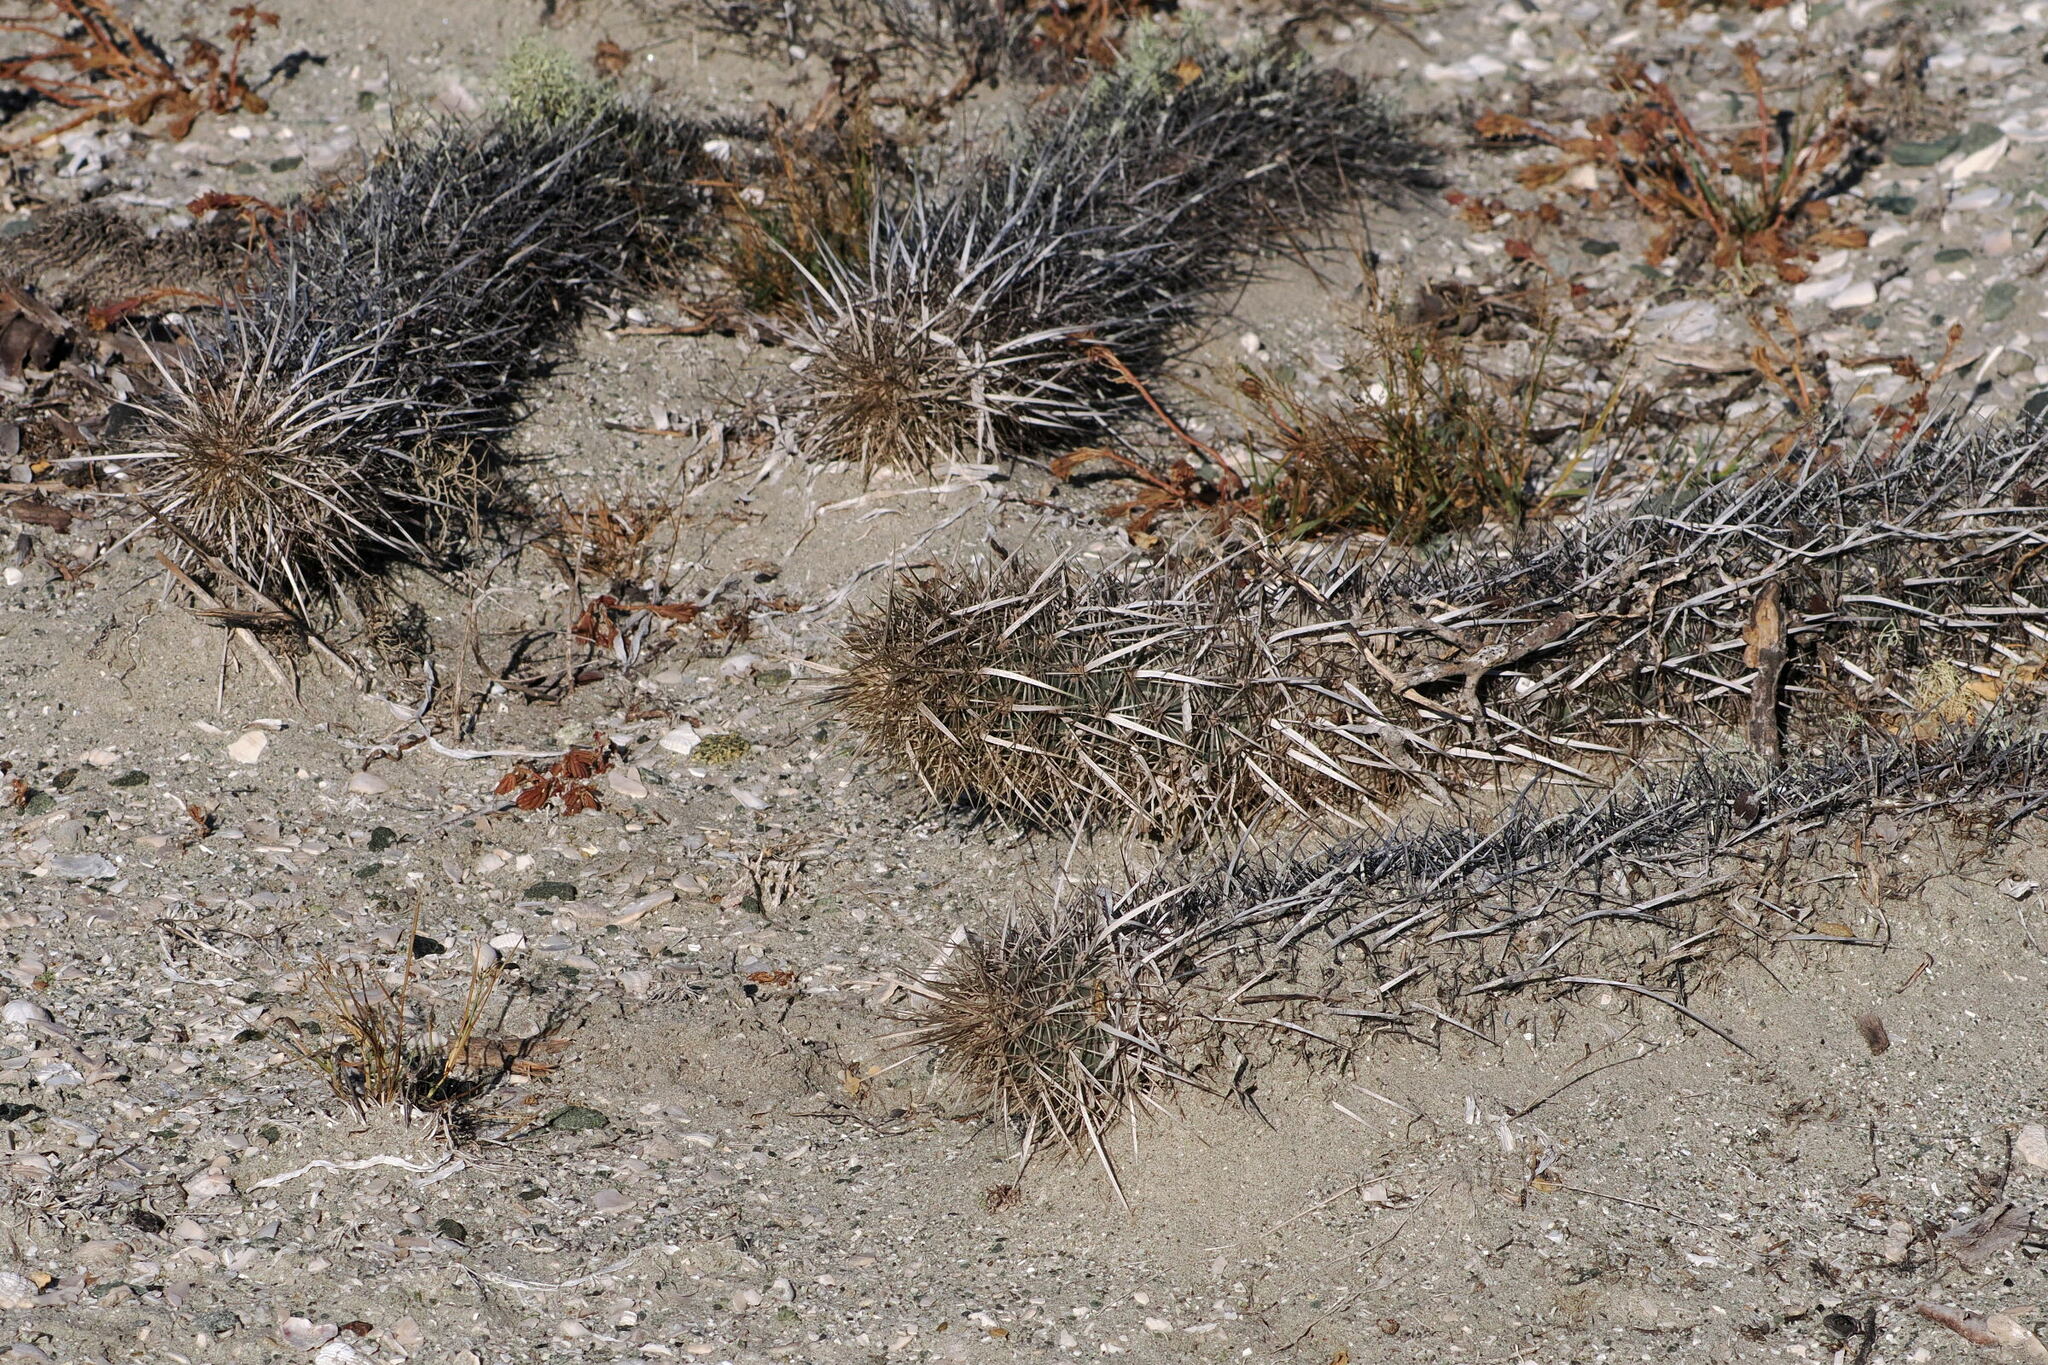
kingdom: Plantae
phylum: Tracheophyta
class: Magnoliopsida
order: Caryophyllales
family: Cactaceae
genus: Stenocereus
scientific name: Stenocereus eruca
